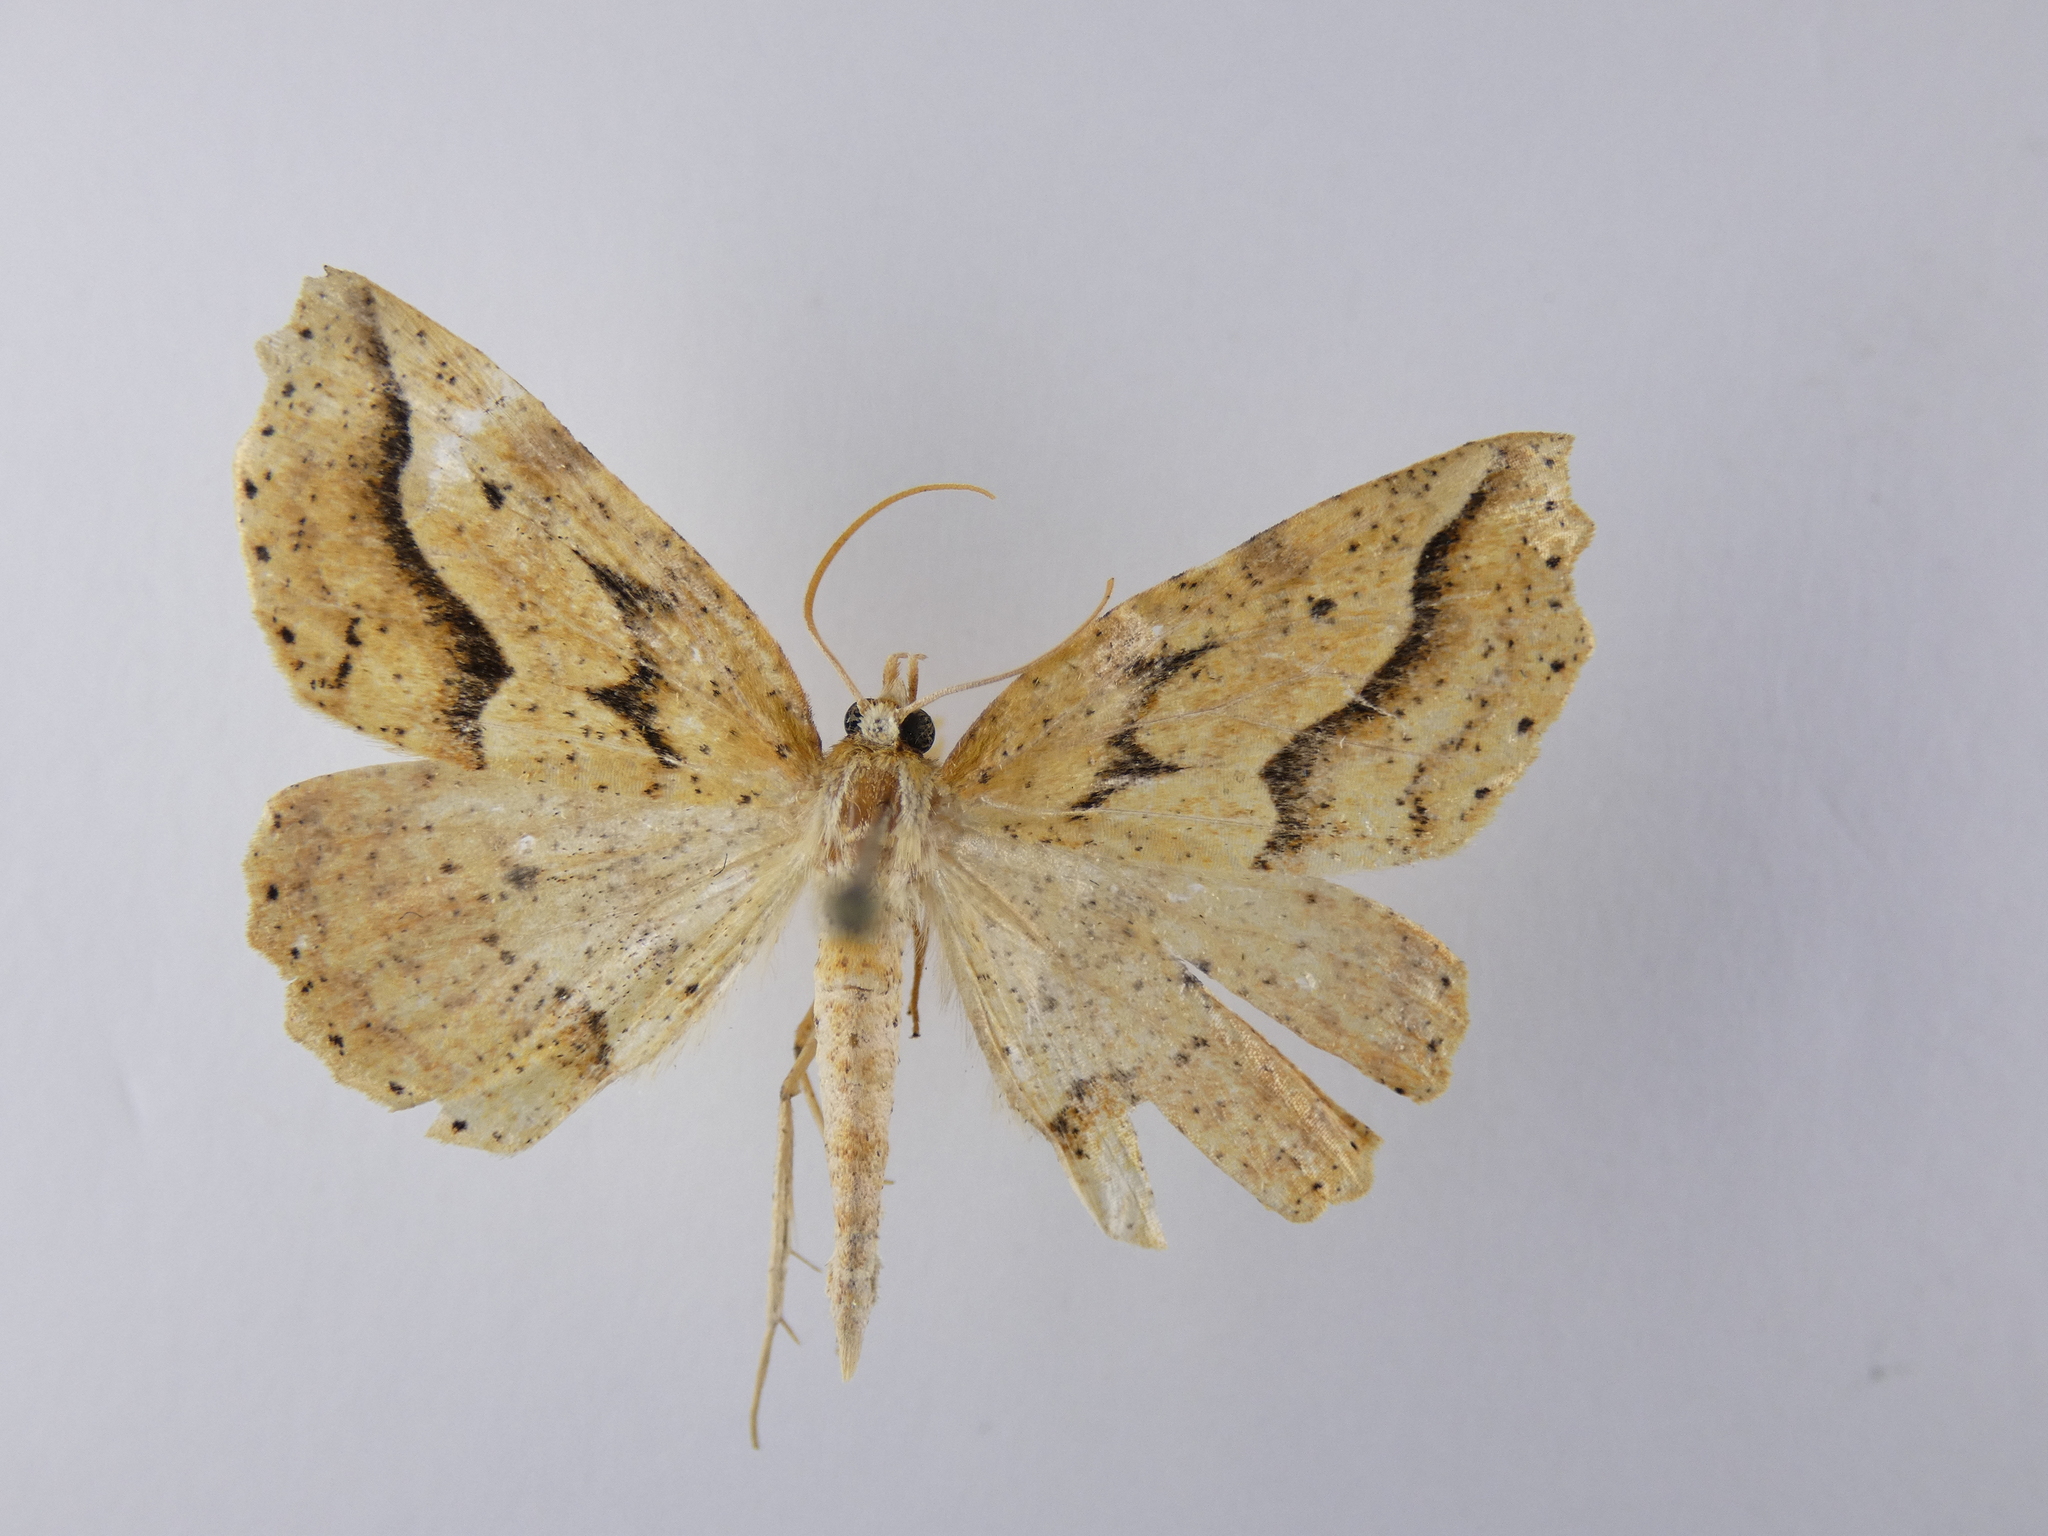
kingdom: Animalia
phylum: Arthropoda
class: Insecta
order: Lepidoptera
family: Geometridae
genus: Ischalis
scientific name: Ischalis variabilis
